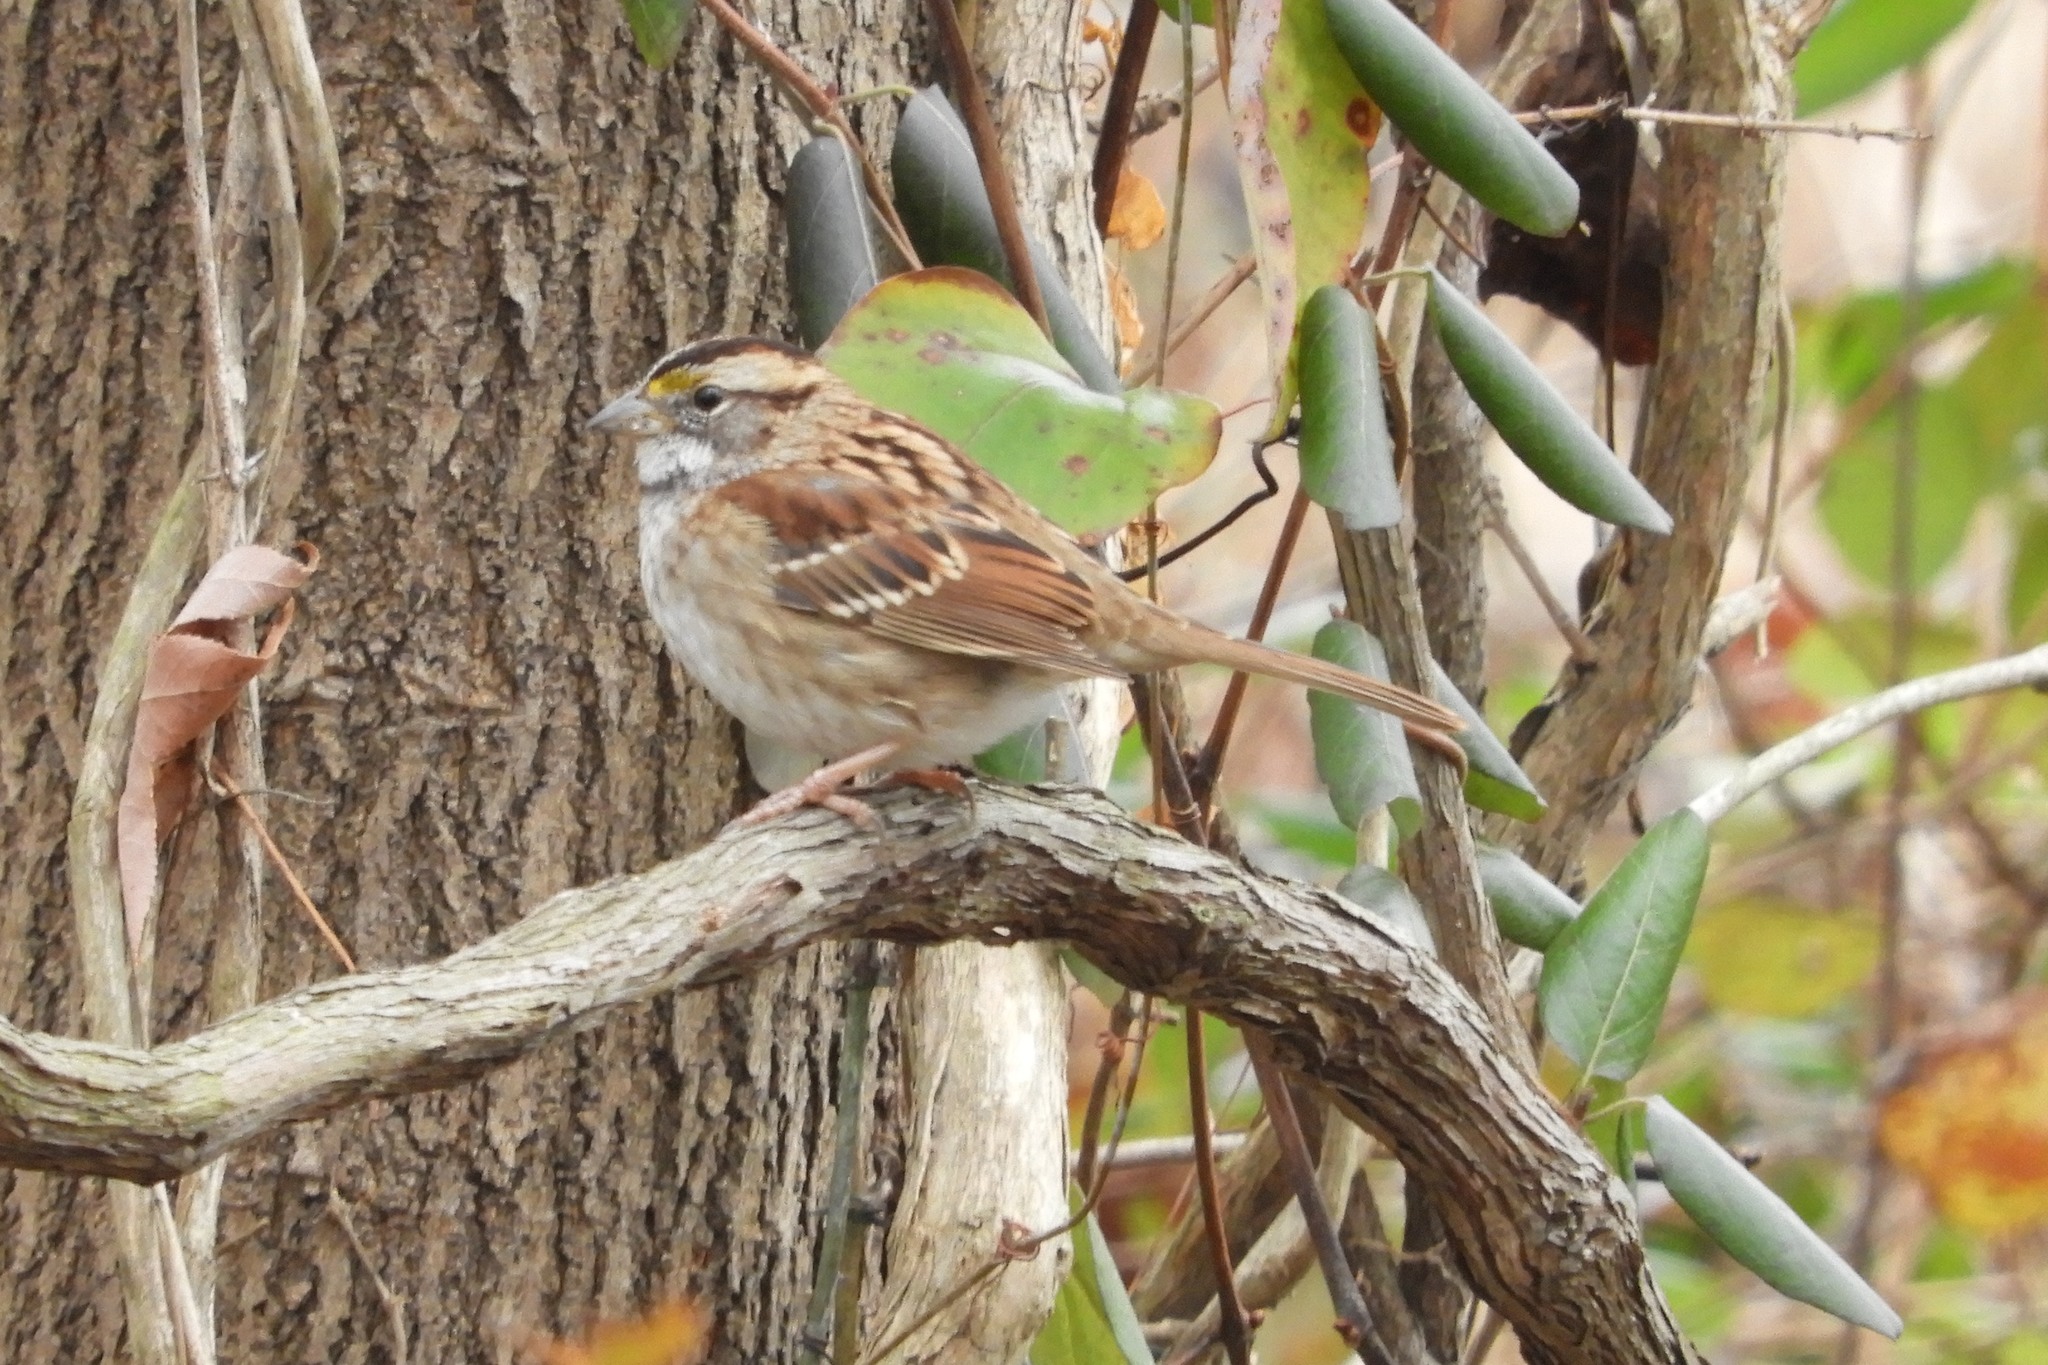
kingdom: Animalia
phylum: Chordata
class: Aves
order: Passeriformes
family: Passerellidae
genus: Zonotrichia
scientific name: Zonotrichia albicollis
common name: White-throated sparrow
